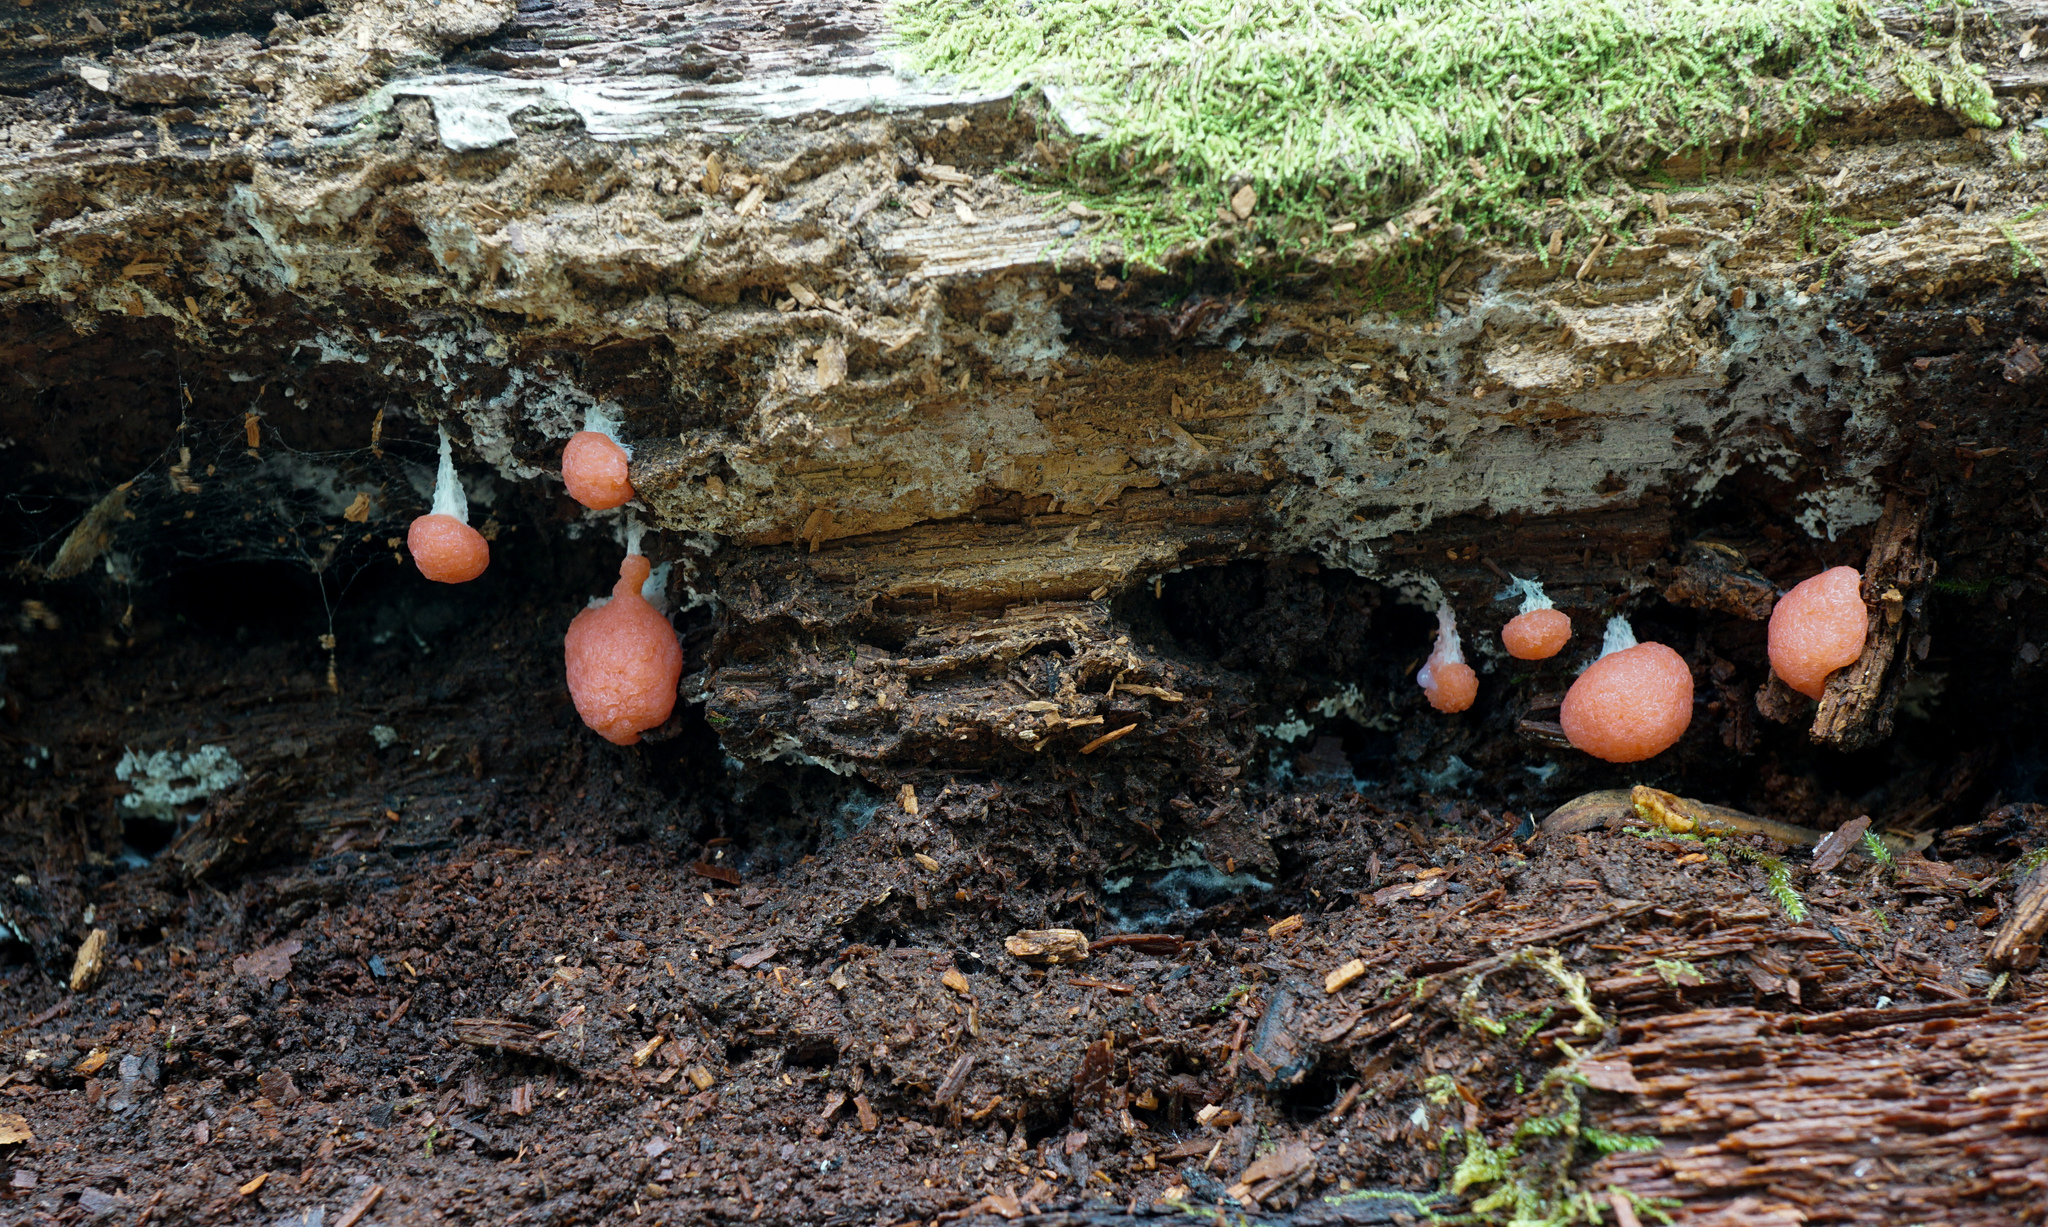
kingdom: Protozoa
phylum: Mycetozoa
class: Myxomycetes
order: Cribrariales
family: Tubiferaceae
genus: Tubifera
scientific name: Tubifera ferruginosa
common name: Red raspberry slime mold
